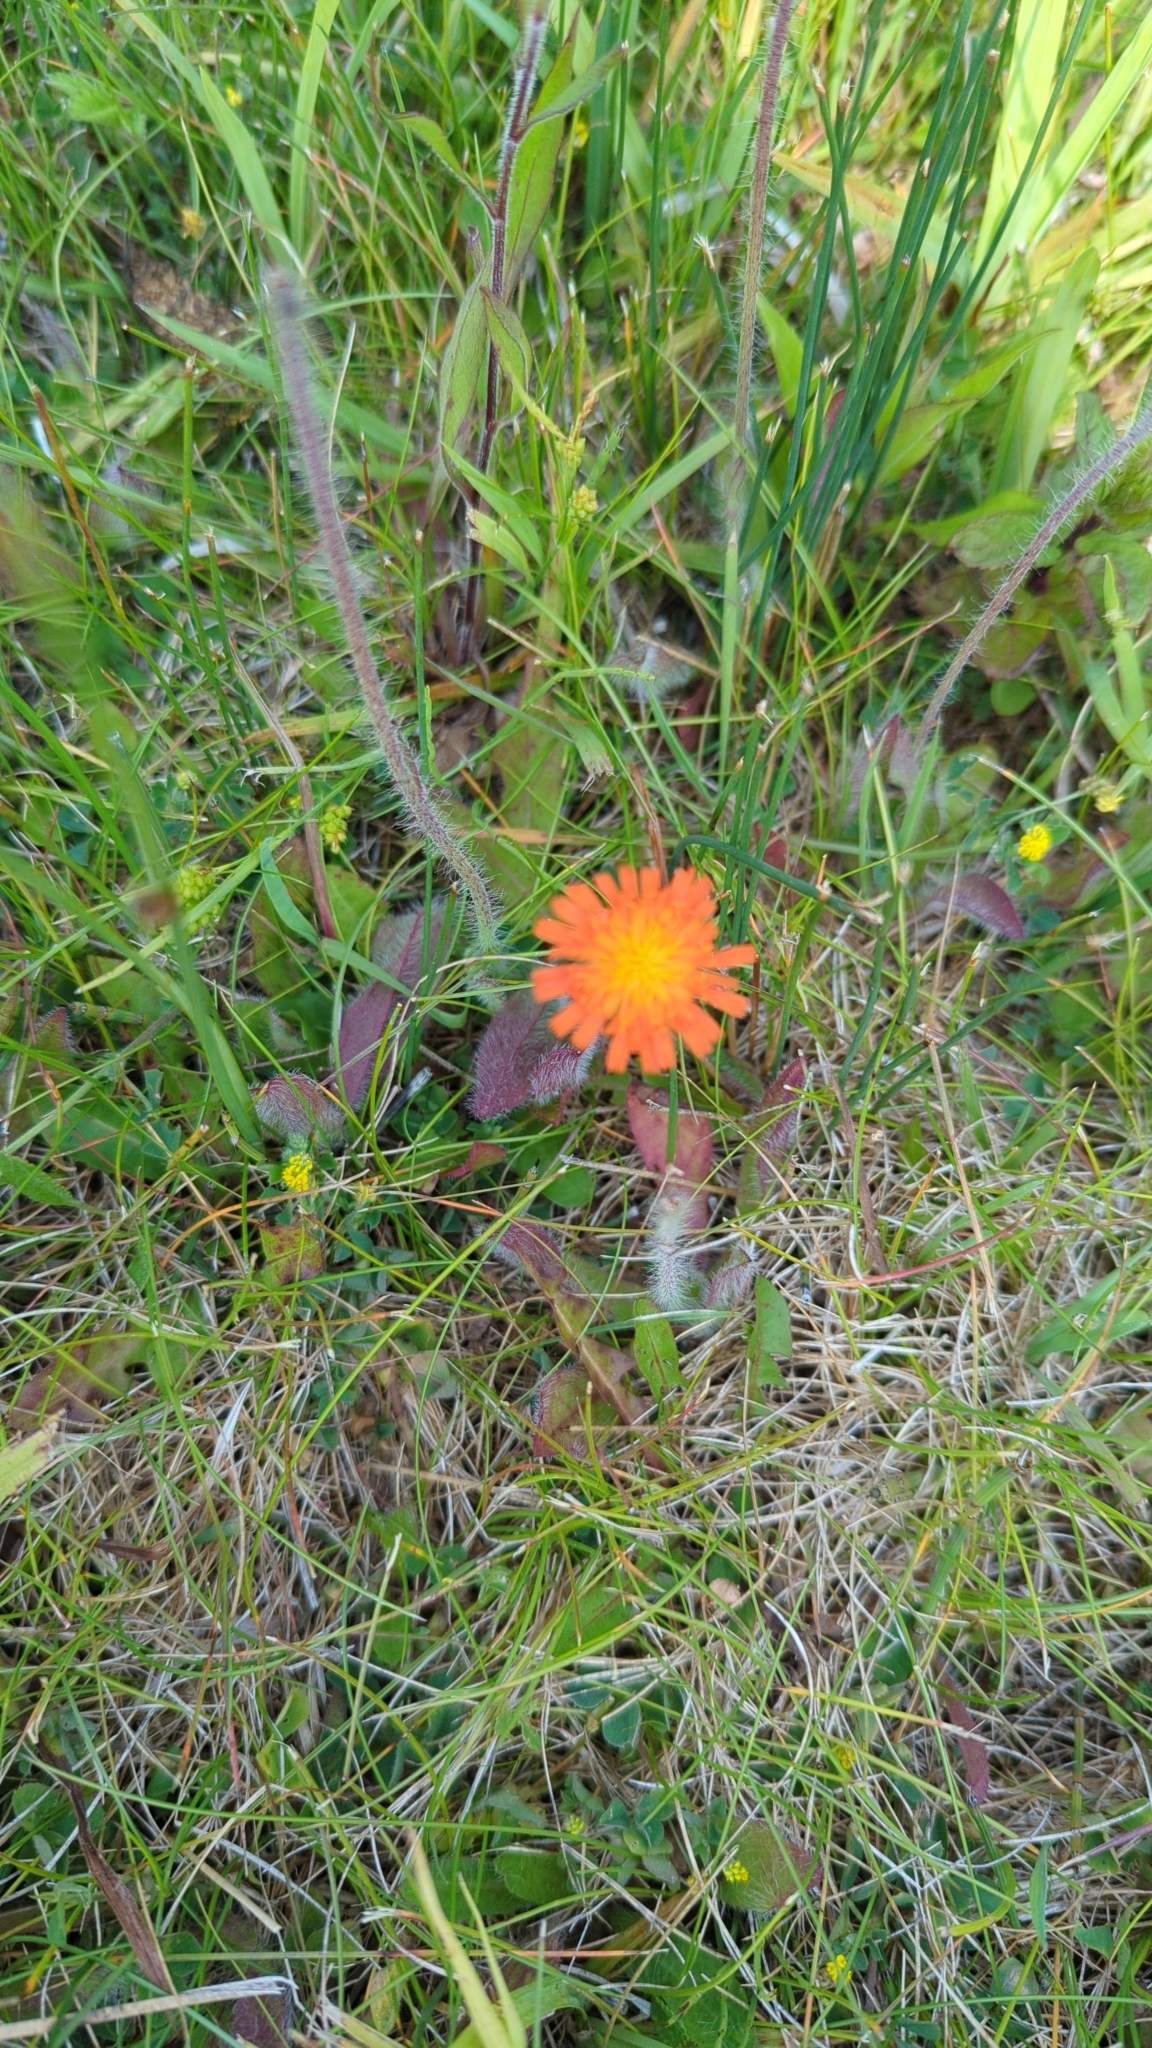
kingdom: Plantae
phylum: Tracheophyta
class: Magnoliopsida
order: Asterales
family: Asteraceae
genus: Pilosella
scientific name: Pilosella aurantiaca
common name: Fox-and-cubs
